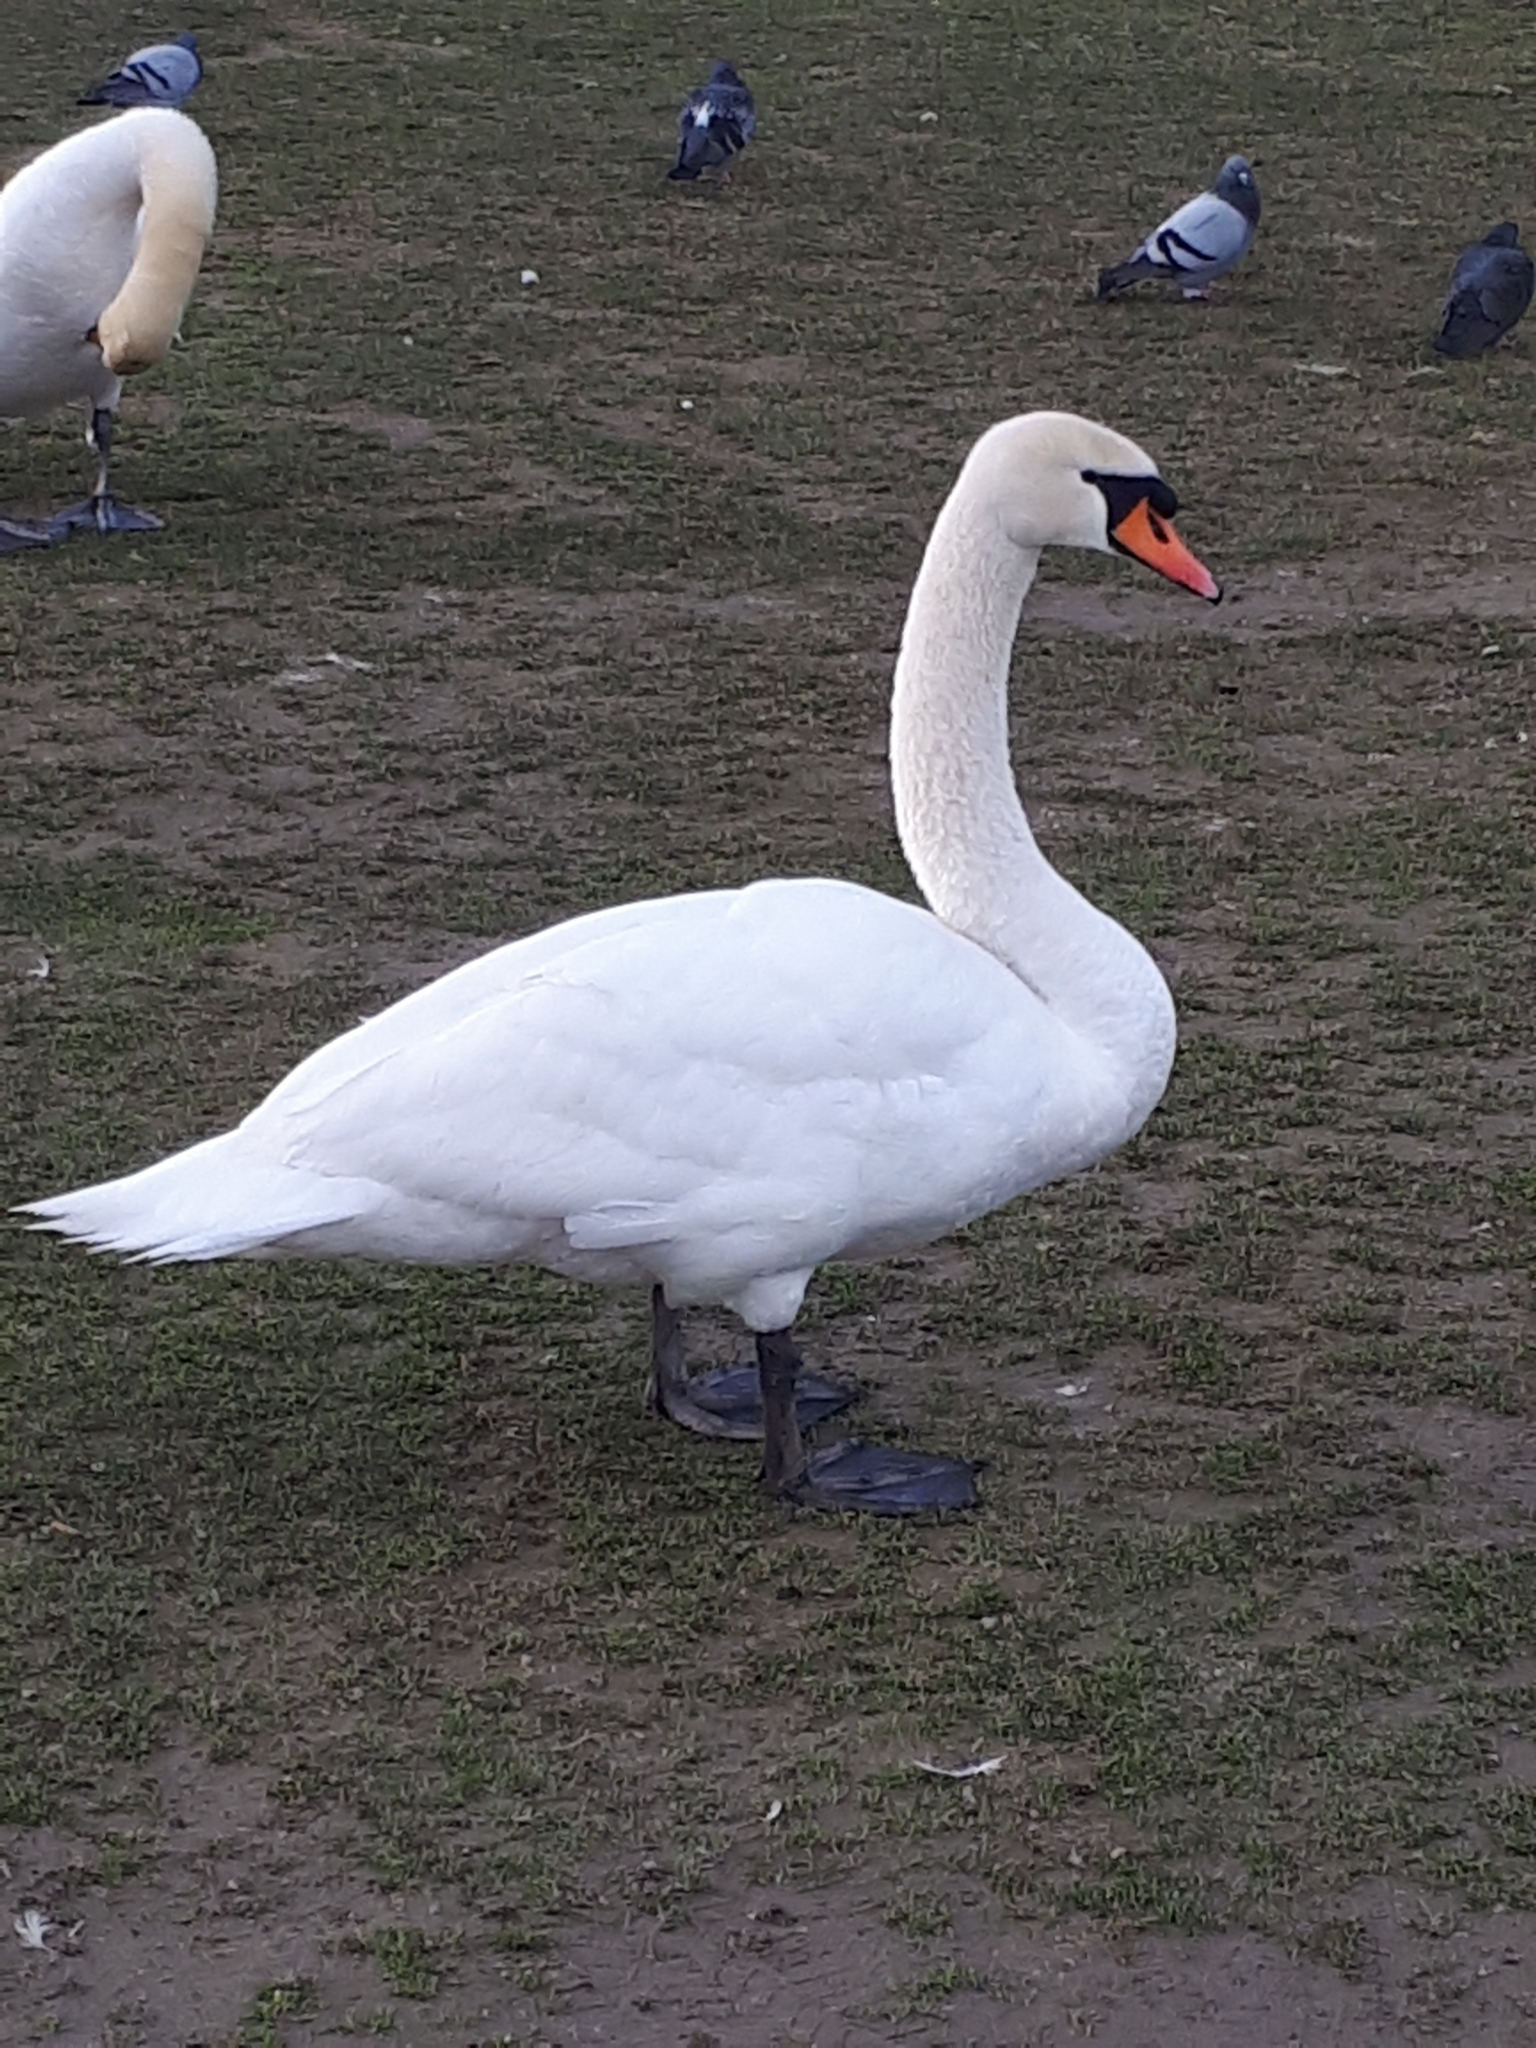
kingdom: Animalia
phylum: Chordata
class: Aves
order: Anseriformes
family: Anatidae
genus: Cygnus
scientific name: Cygnus olor
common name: Mute swan
